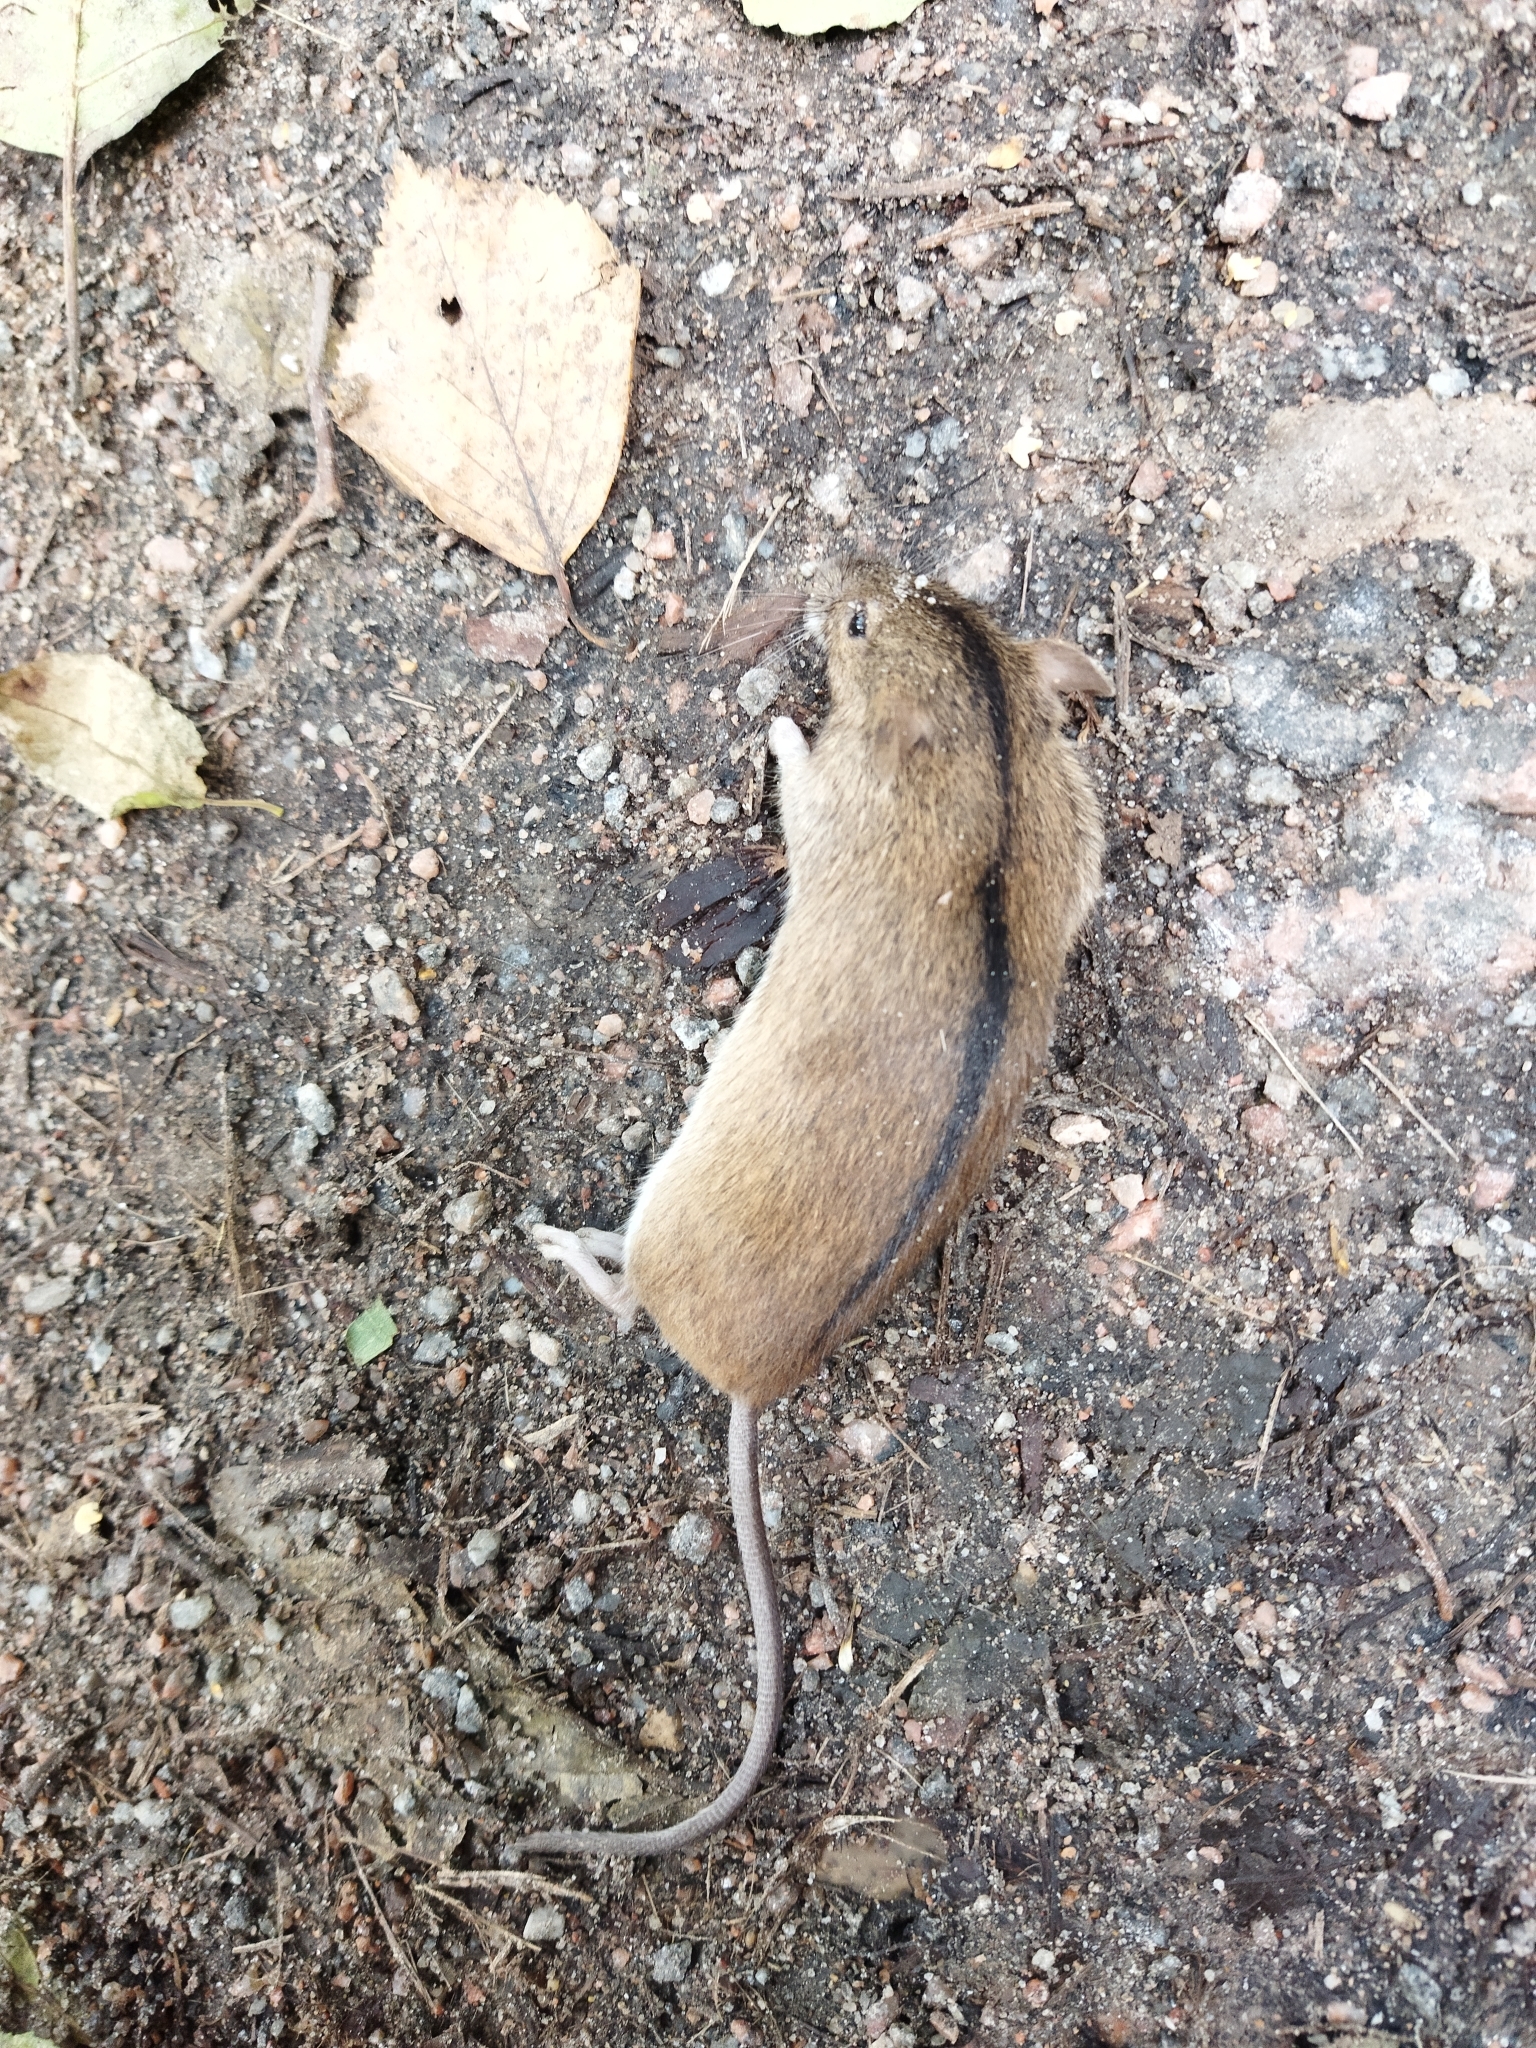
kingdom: Animalia
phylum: Chordata
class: Mammalia
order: Rodentia
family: Muridae
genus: Apodemus
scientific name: Apodemus agrarius
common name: Striped field mouse
